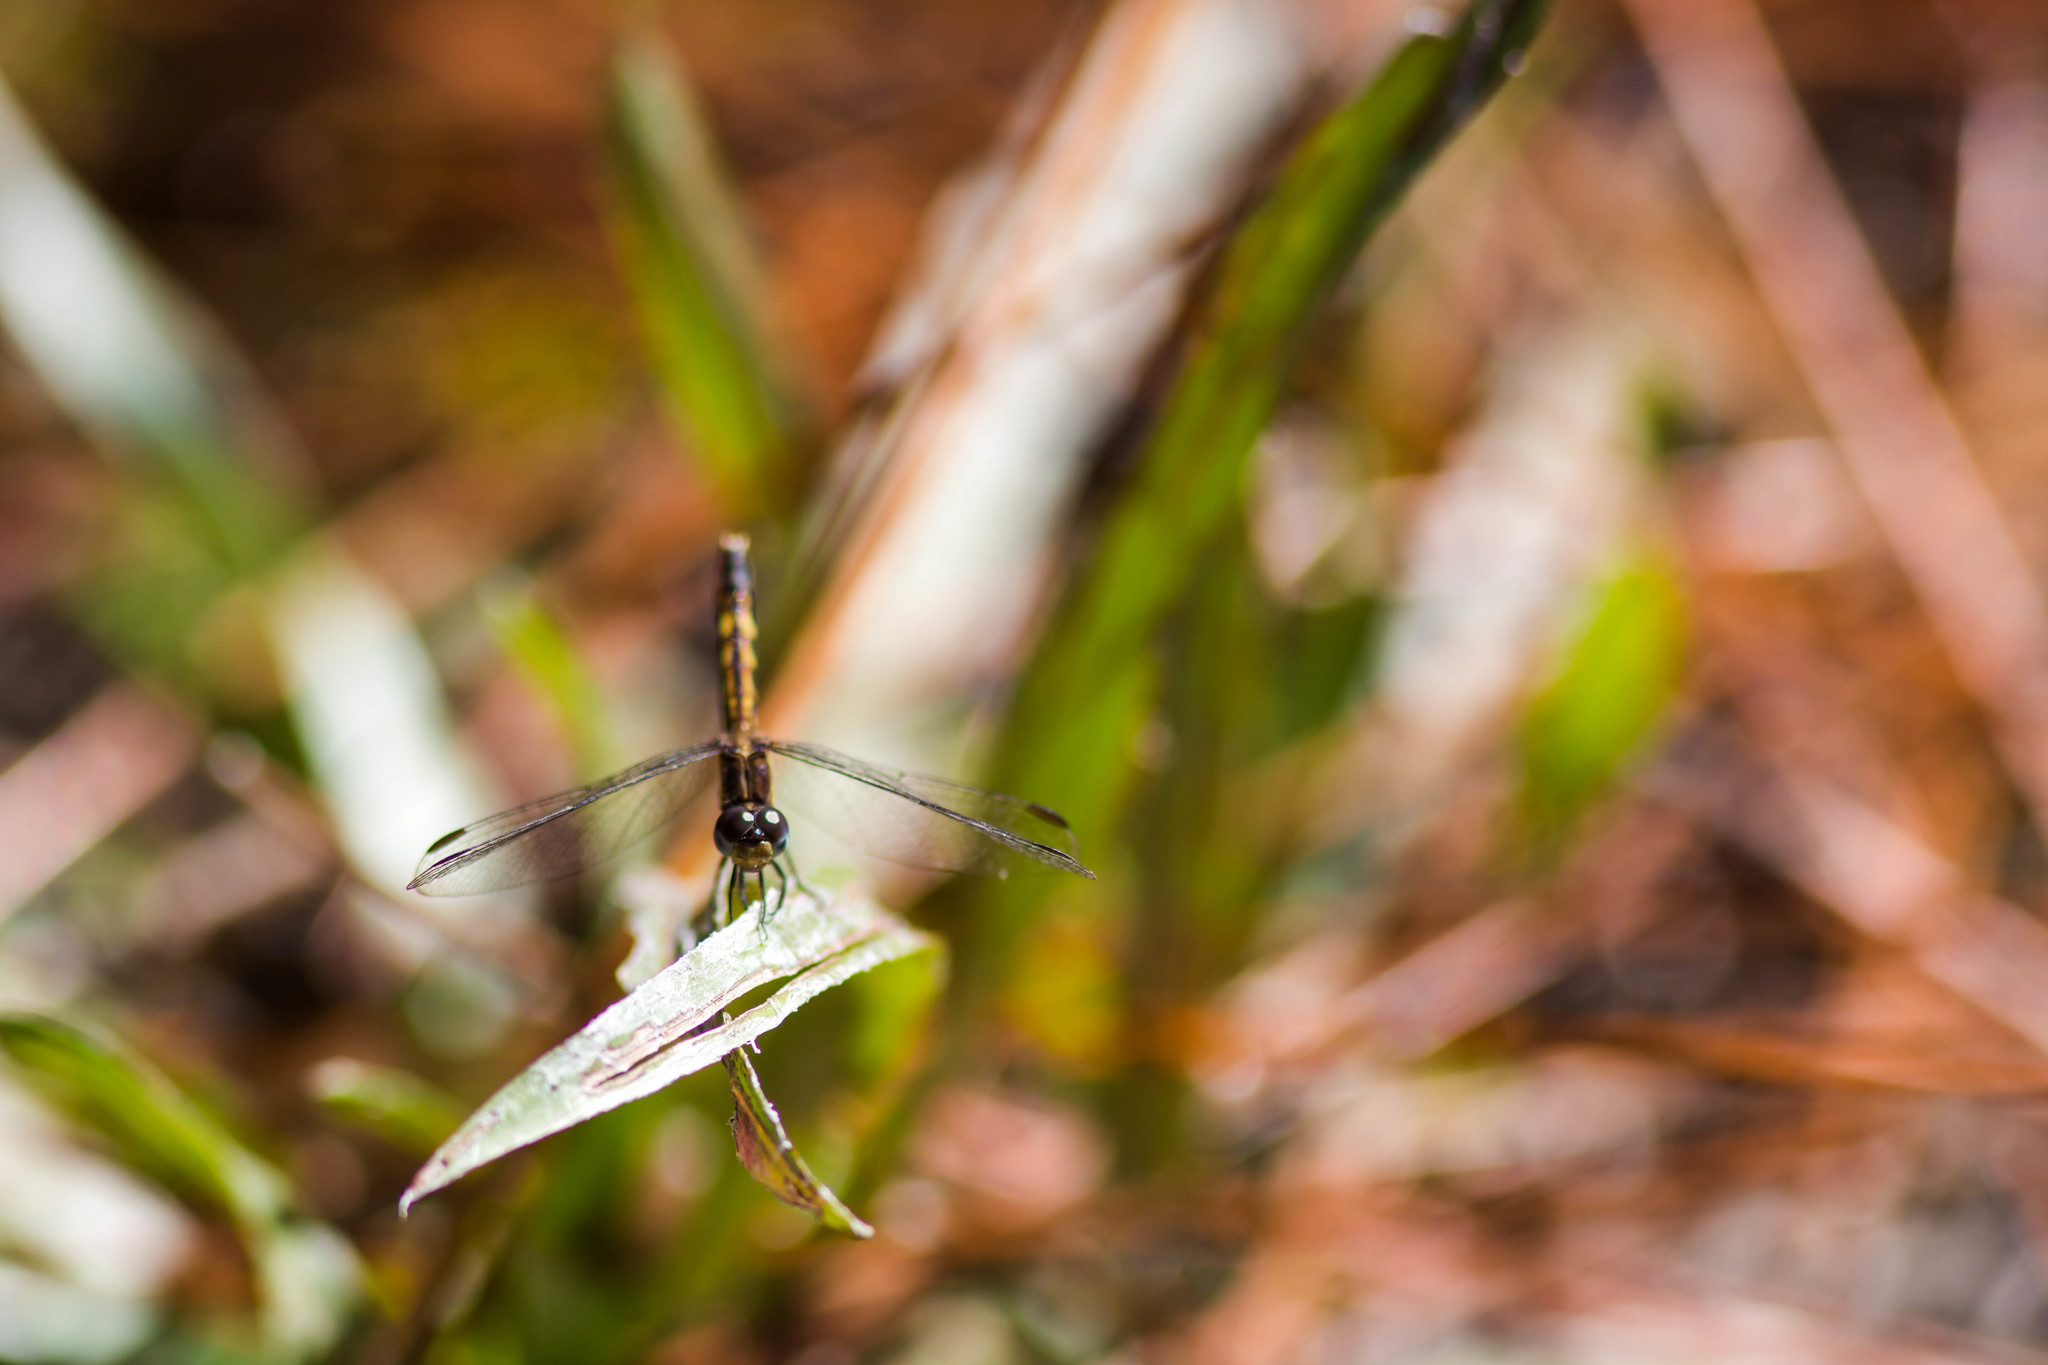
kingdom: Animalia
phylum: Arthropoda
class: Insecta
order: Odonata
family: Libellulidae
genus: Erythrodiplax
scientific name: Erythrodiplax minuscula
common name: Little blue dragonlet
